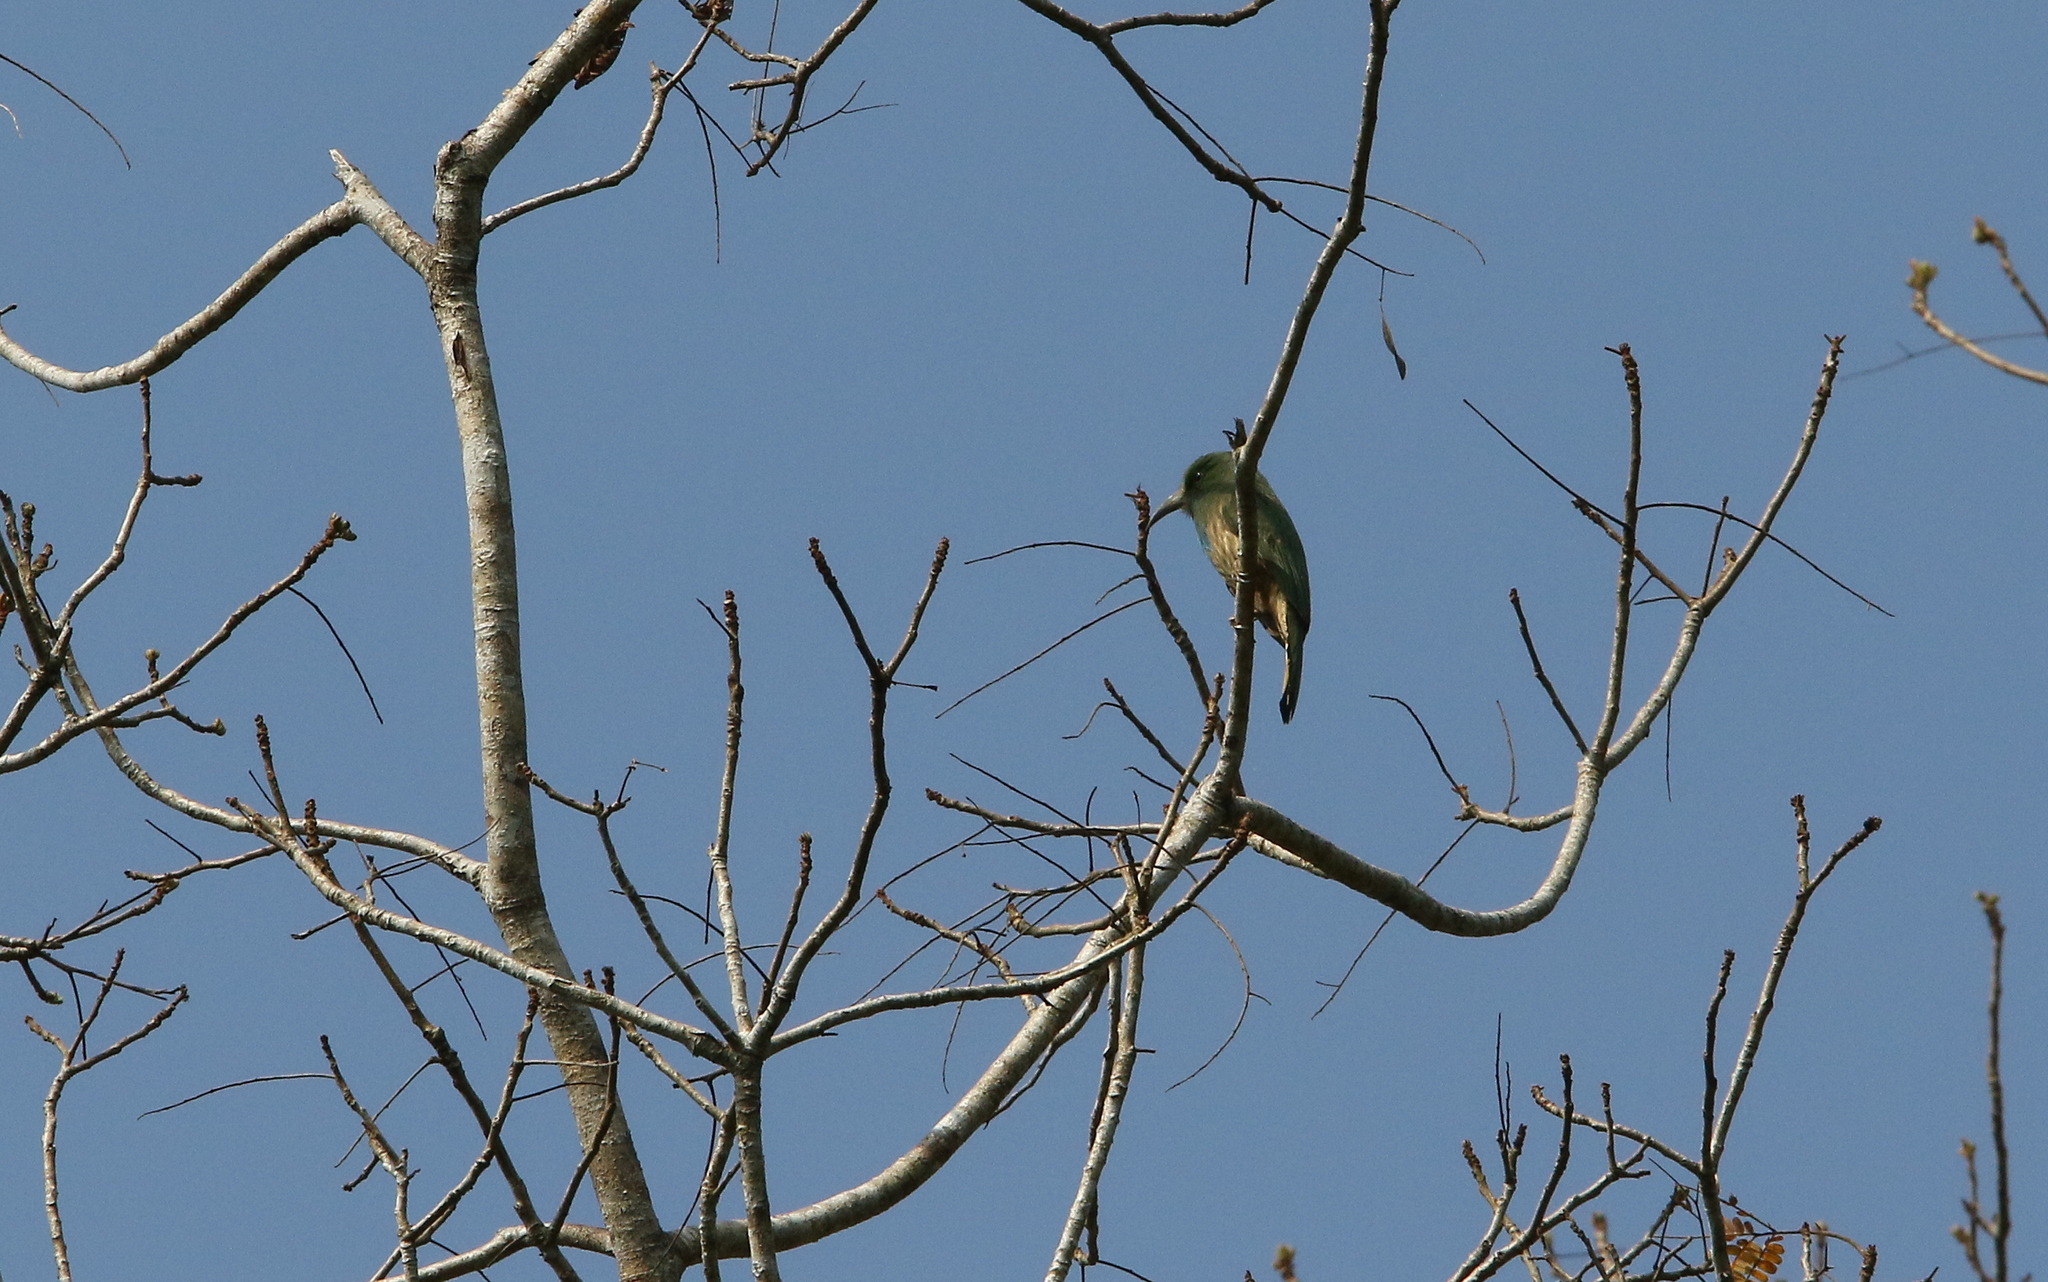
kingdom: Animalia
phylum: Chordata
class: Aves
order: Coraciiformes
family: Meropidae
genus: Nyctyornis
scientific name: Nyctyornis athertoni
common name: Blue-bearded bee-eater
